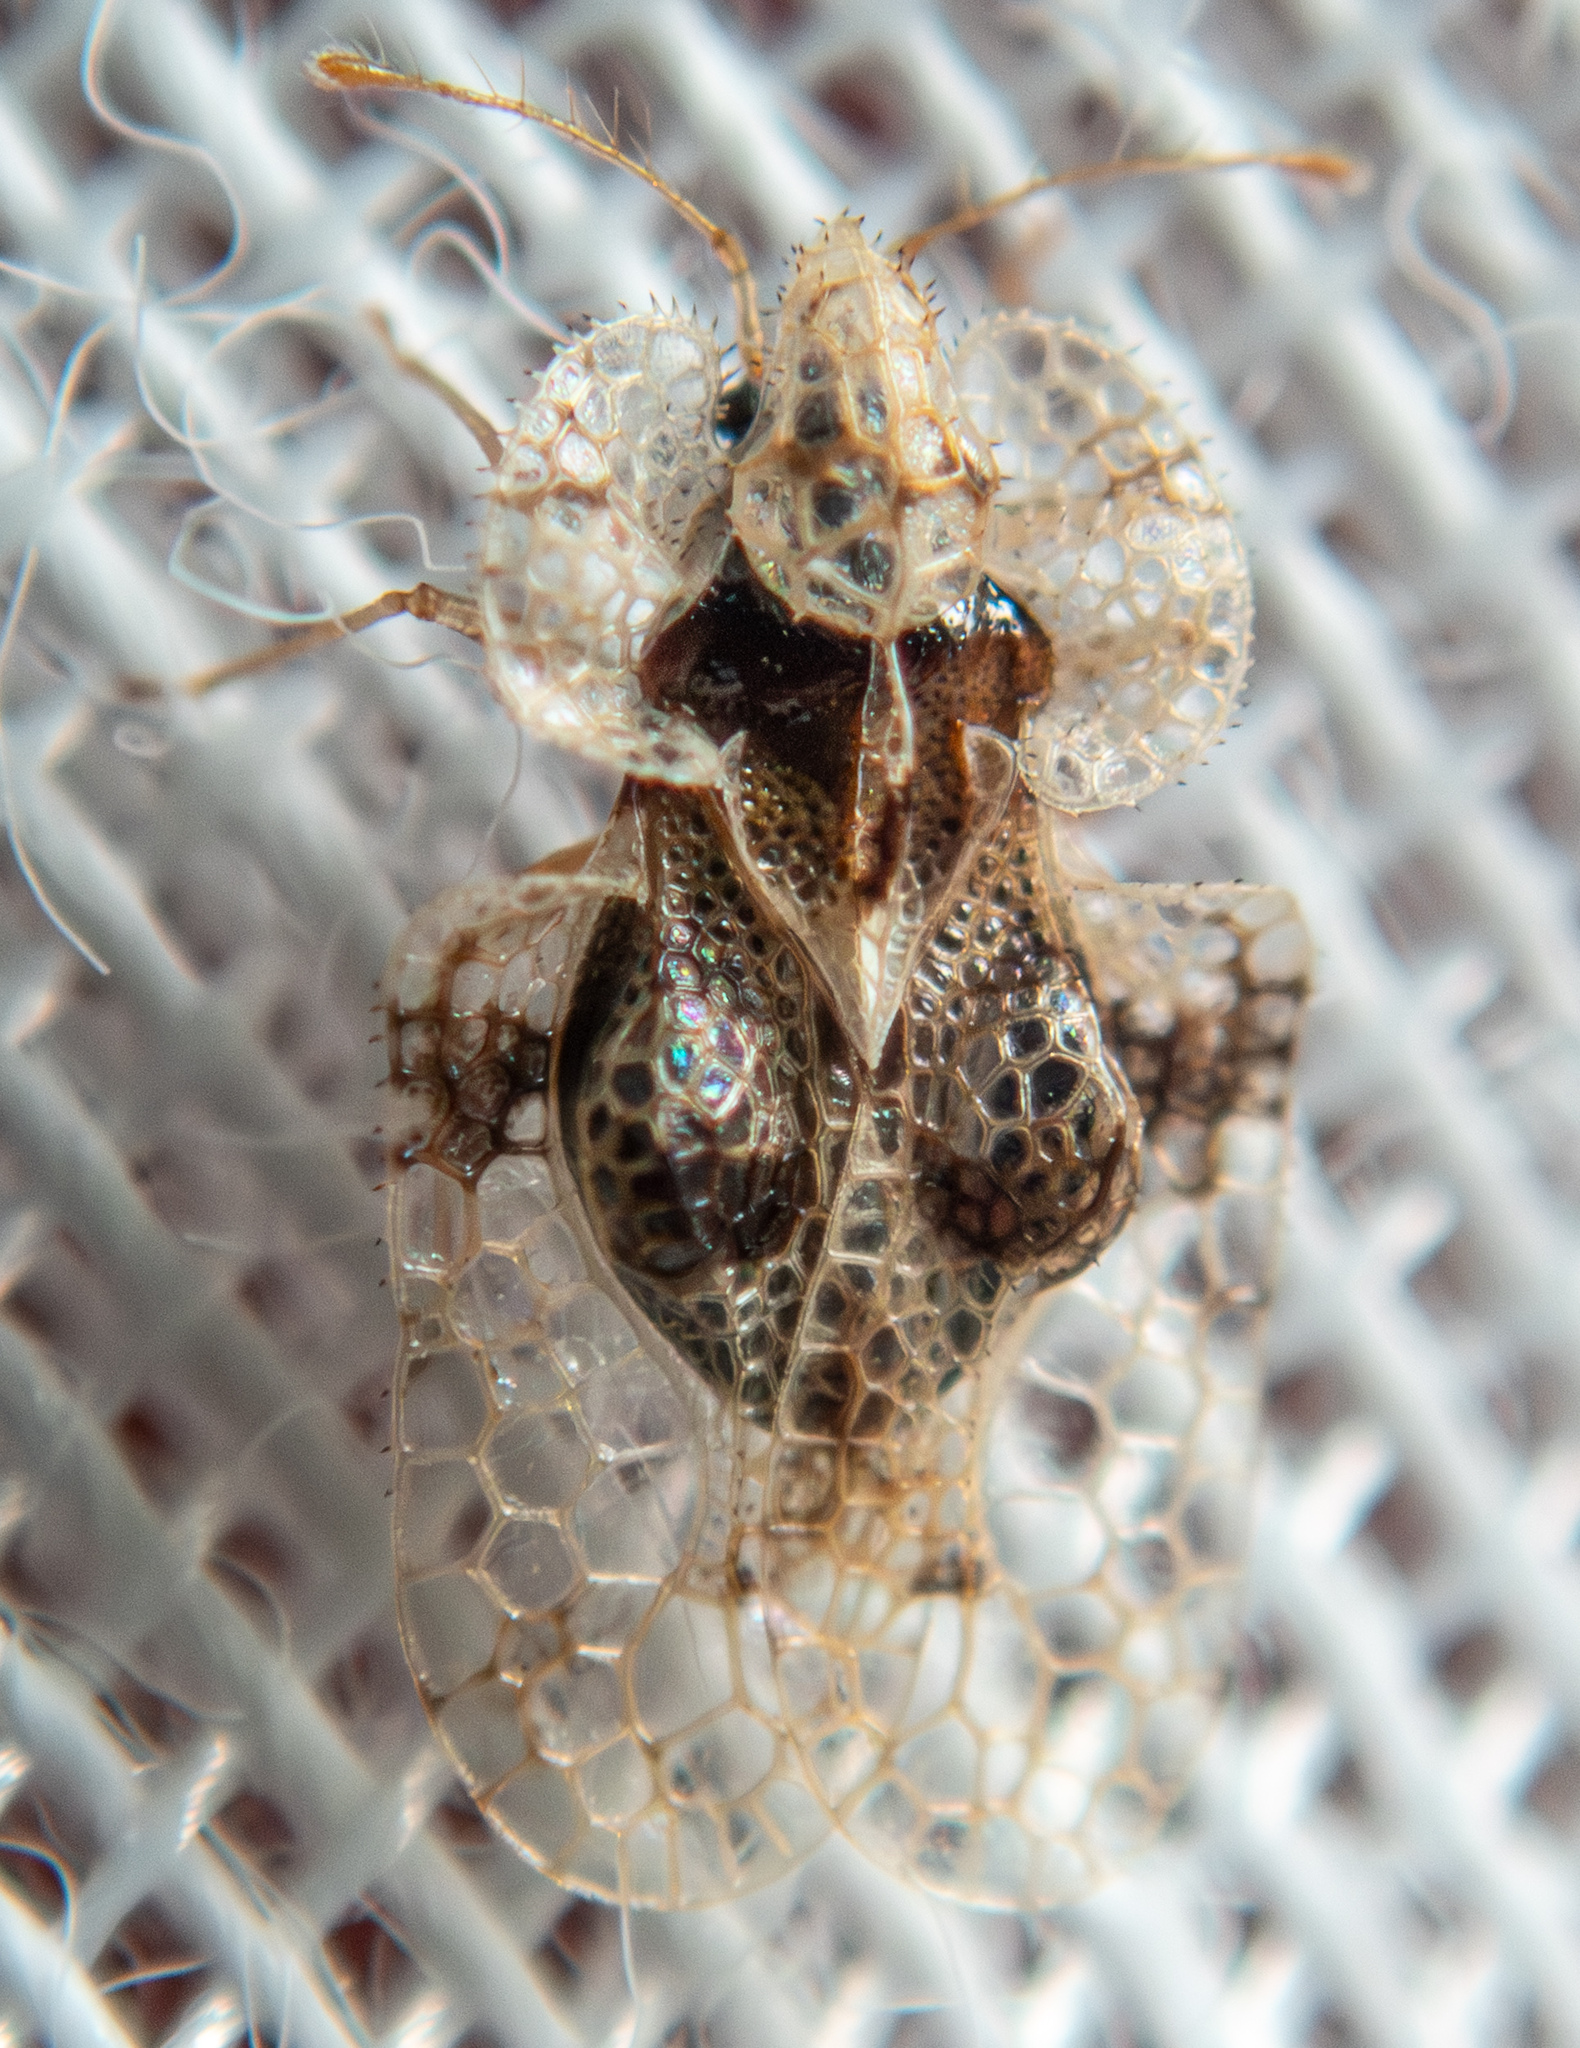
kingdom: Animalia
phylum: Arthropoda
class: Insecta
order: Hemiptera
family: Tingidae
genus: Corythucha
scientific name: Corythucha arcuata
